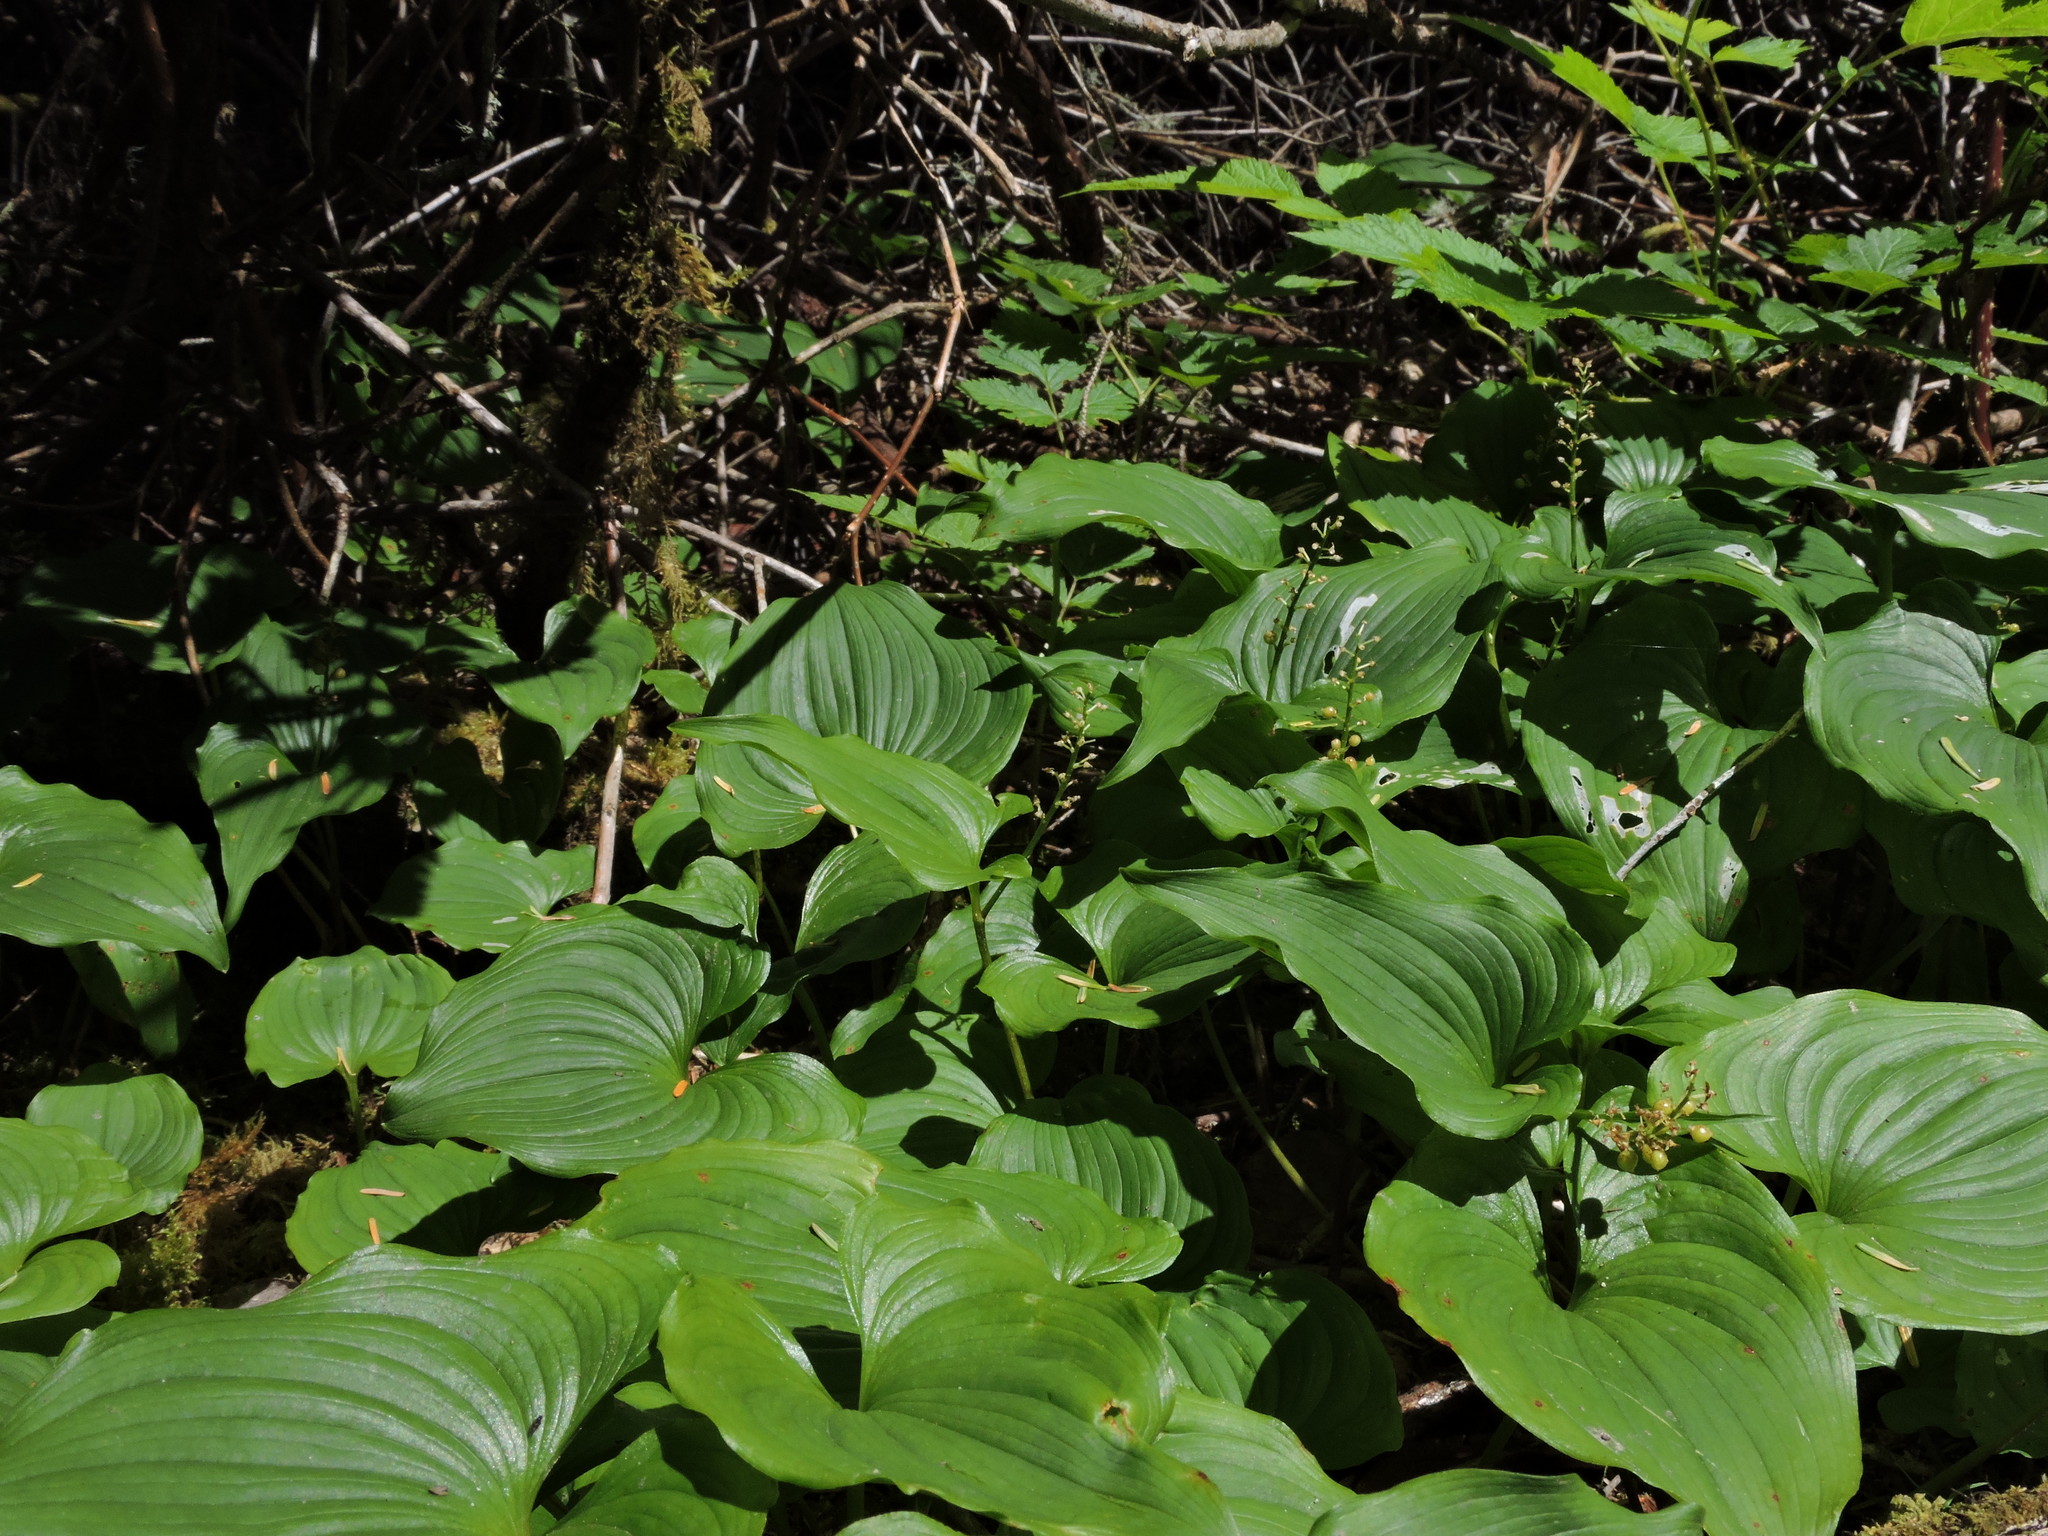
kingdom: Plantae
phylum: Tracheophyta
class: Liliopsida
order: Asparagales
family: Asparagaceae
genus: Maianthemum
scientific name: Maianthemum dilatatum
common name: False lily-of-the-valley
